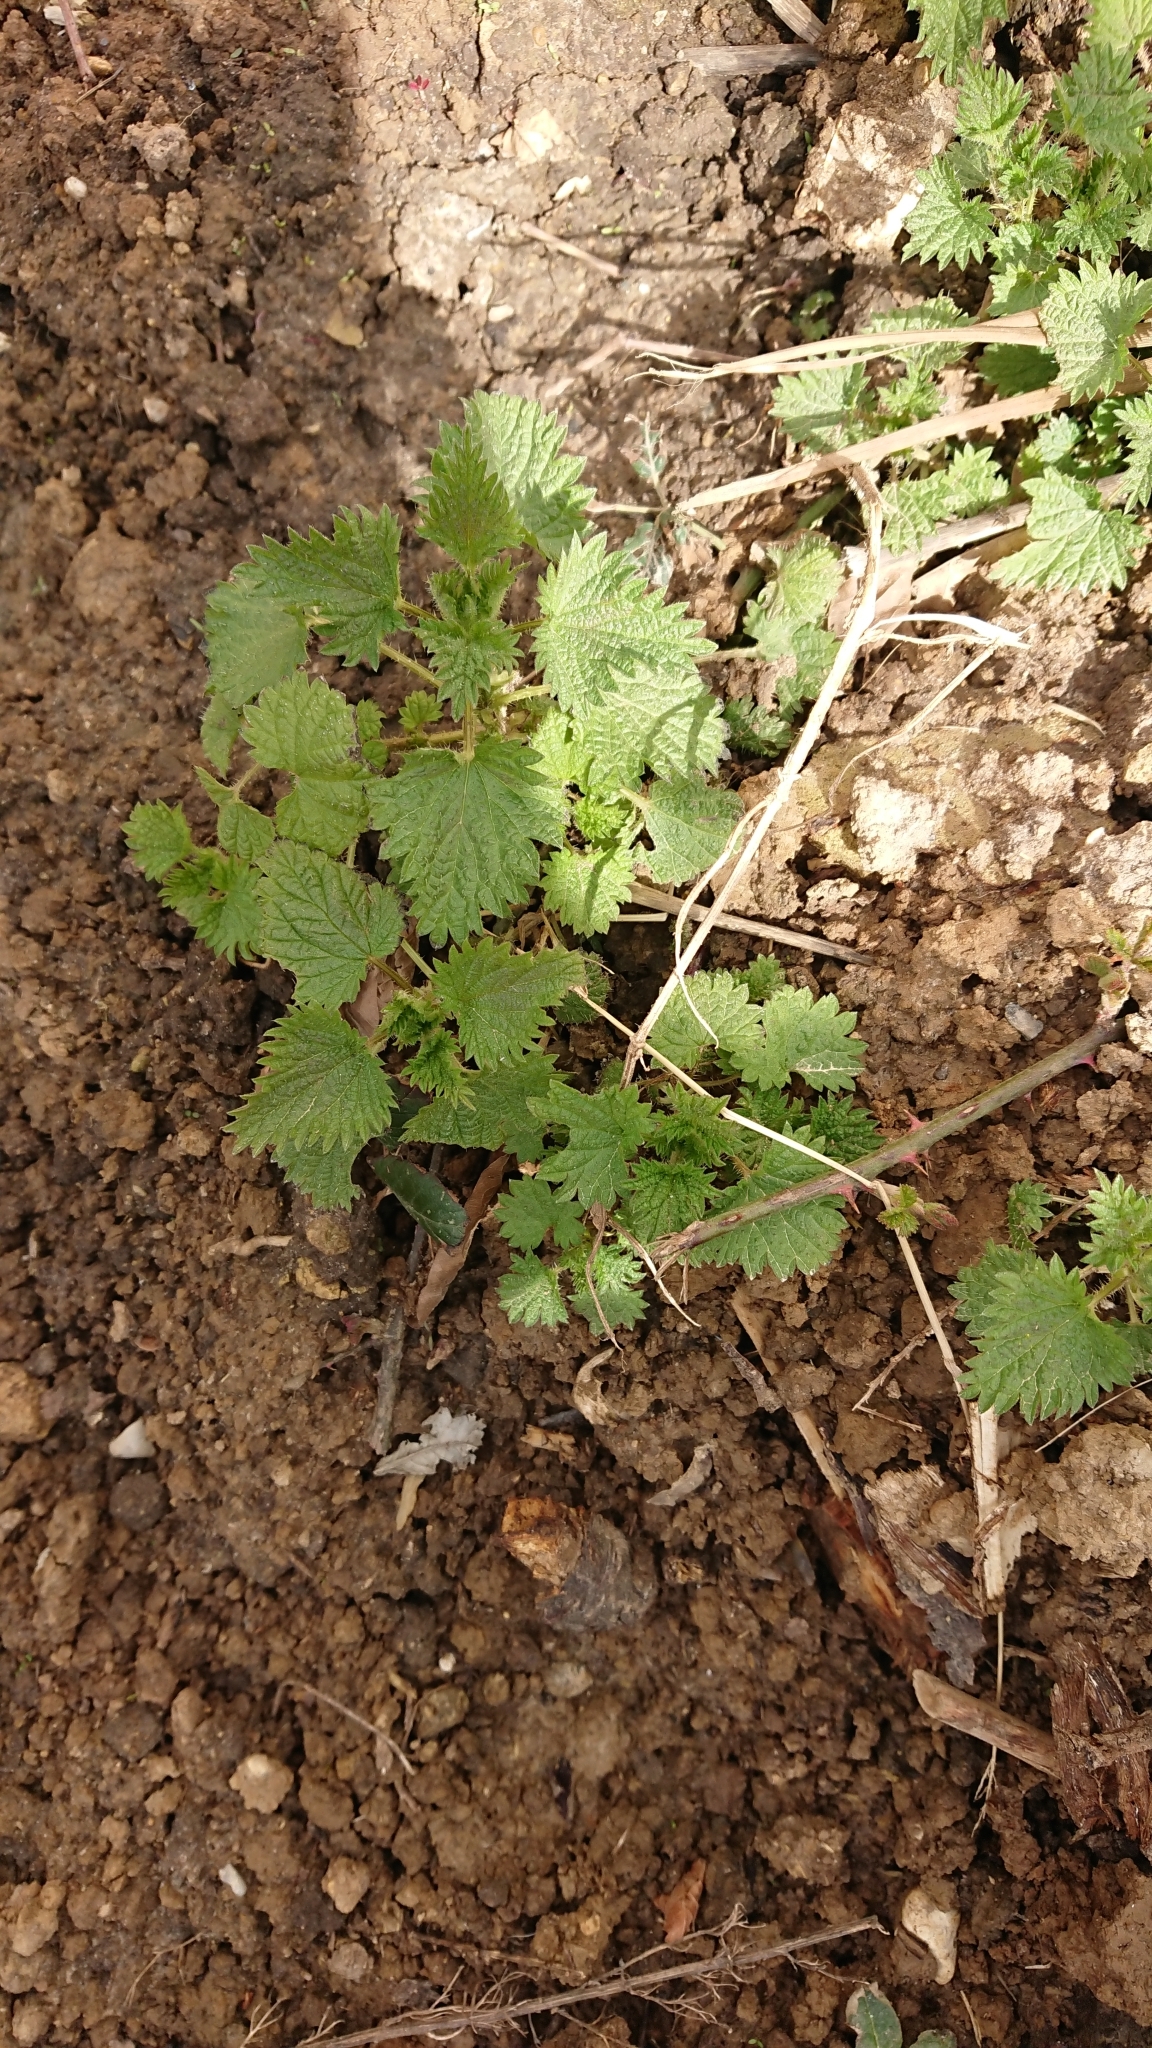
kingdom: Plantae
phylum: Tracheophyta
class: Magnoliopsida
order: Rosales
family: Urticaceae
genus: Urtica
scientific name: Urtica dioica
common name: Common nettle
